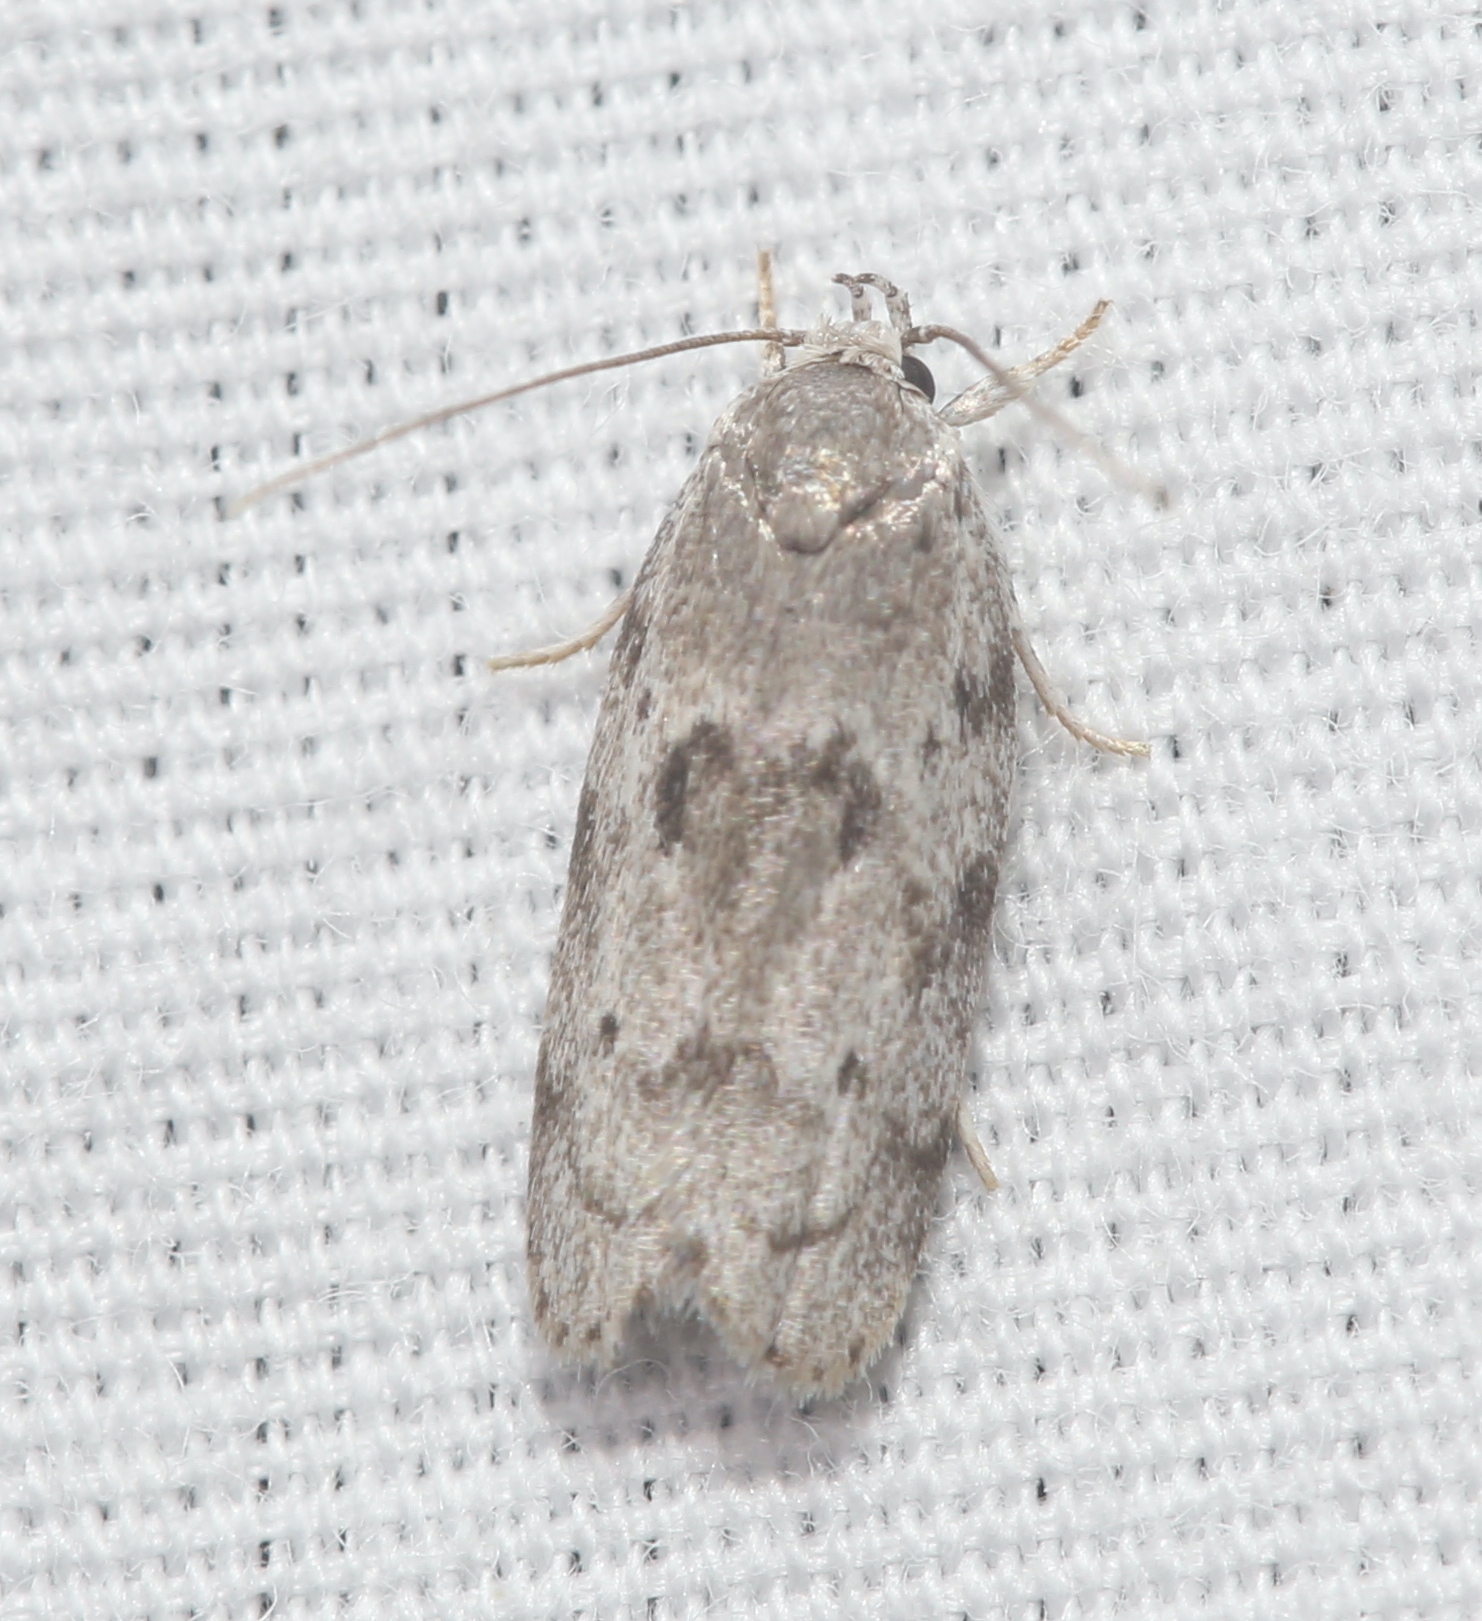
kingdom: Animalia
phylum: Arthropoda
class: Insecta
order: Lepidoptera
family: Depressariidae
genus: Antaeotricha
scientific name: Antaeotricha humilis
